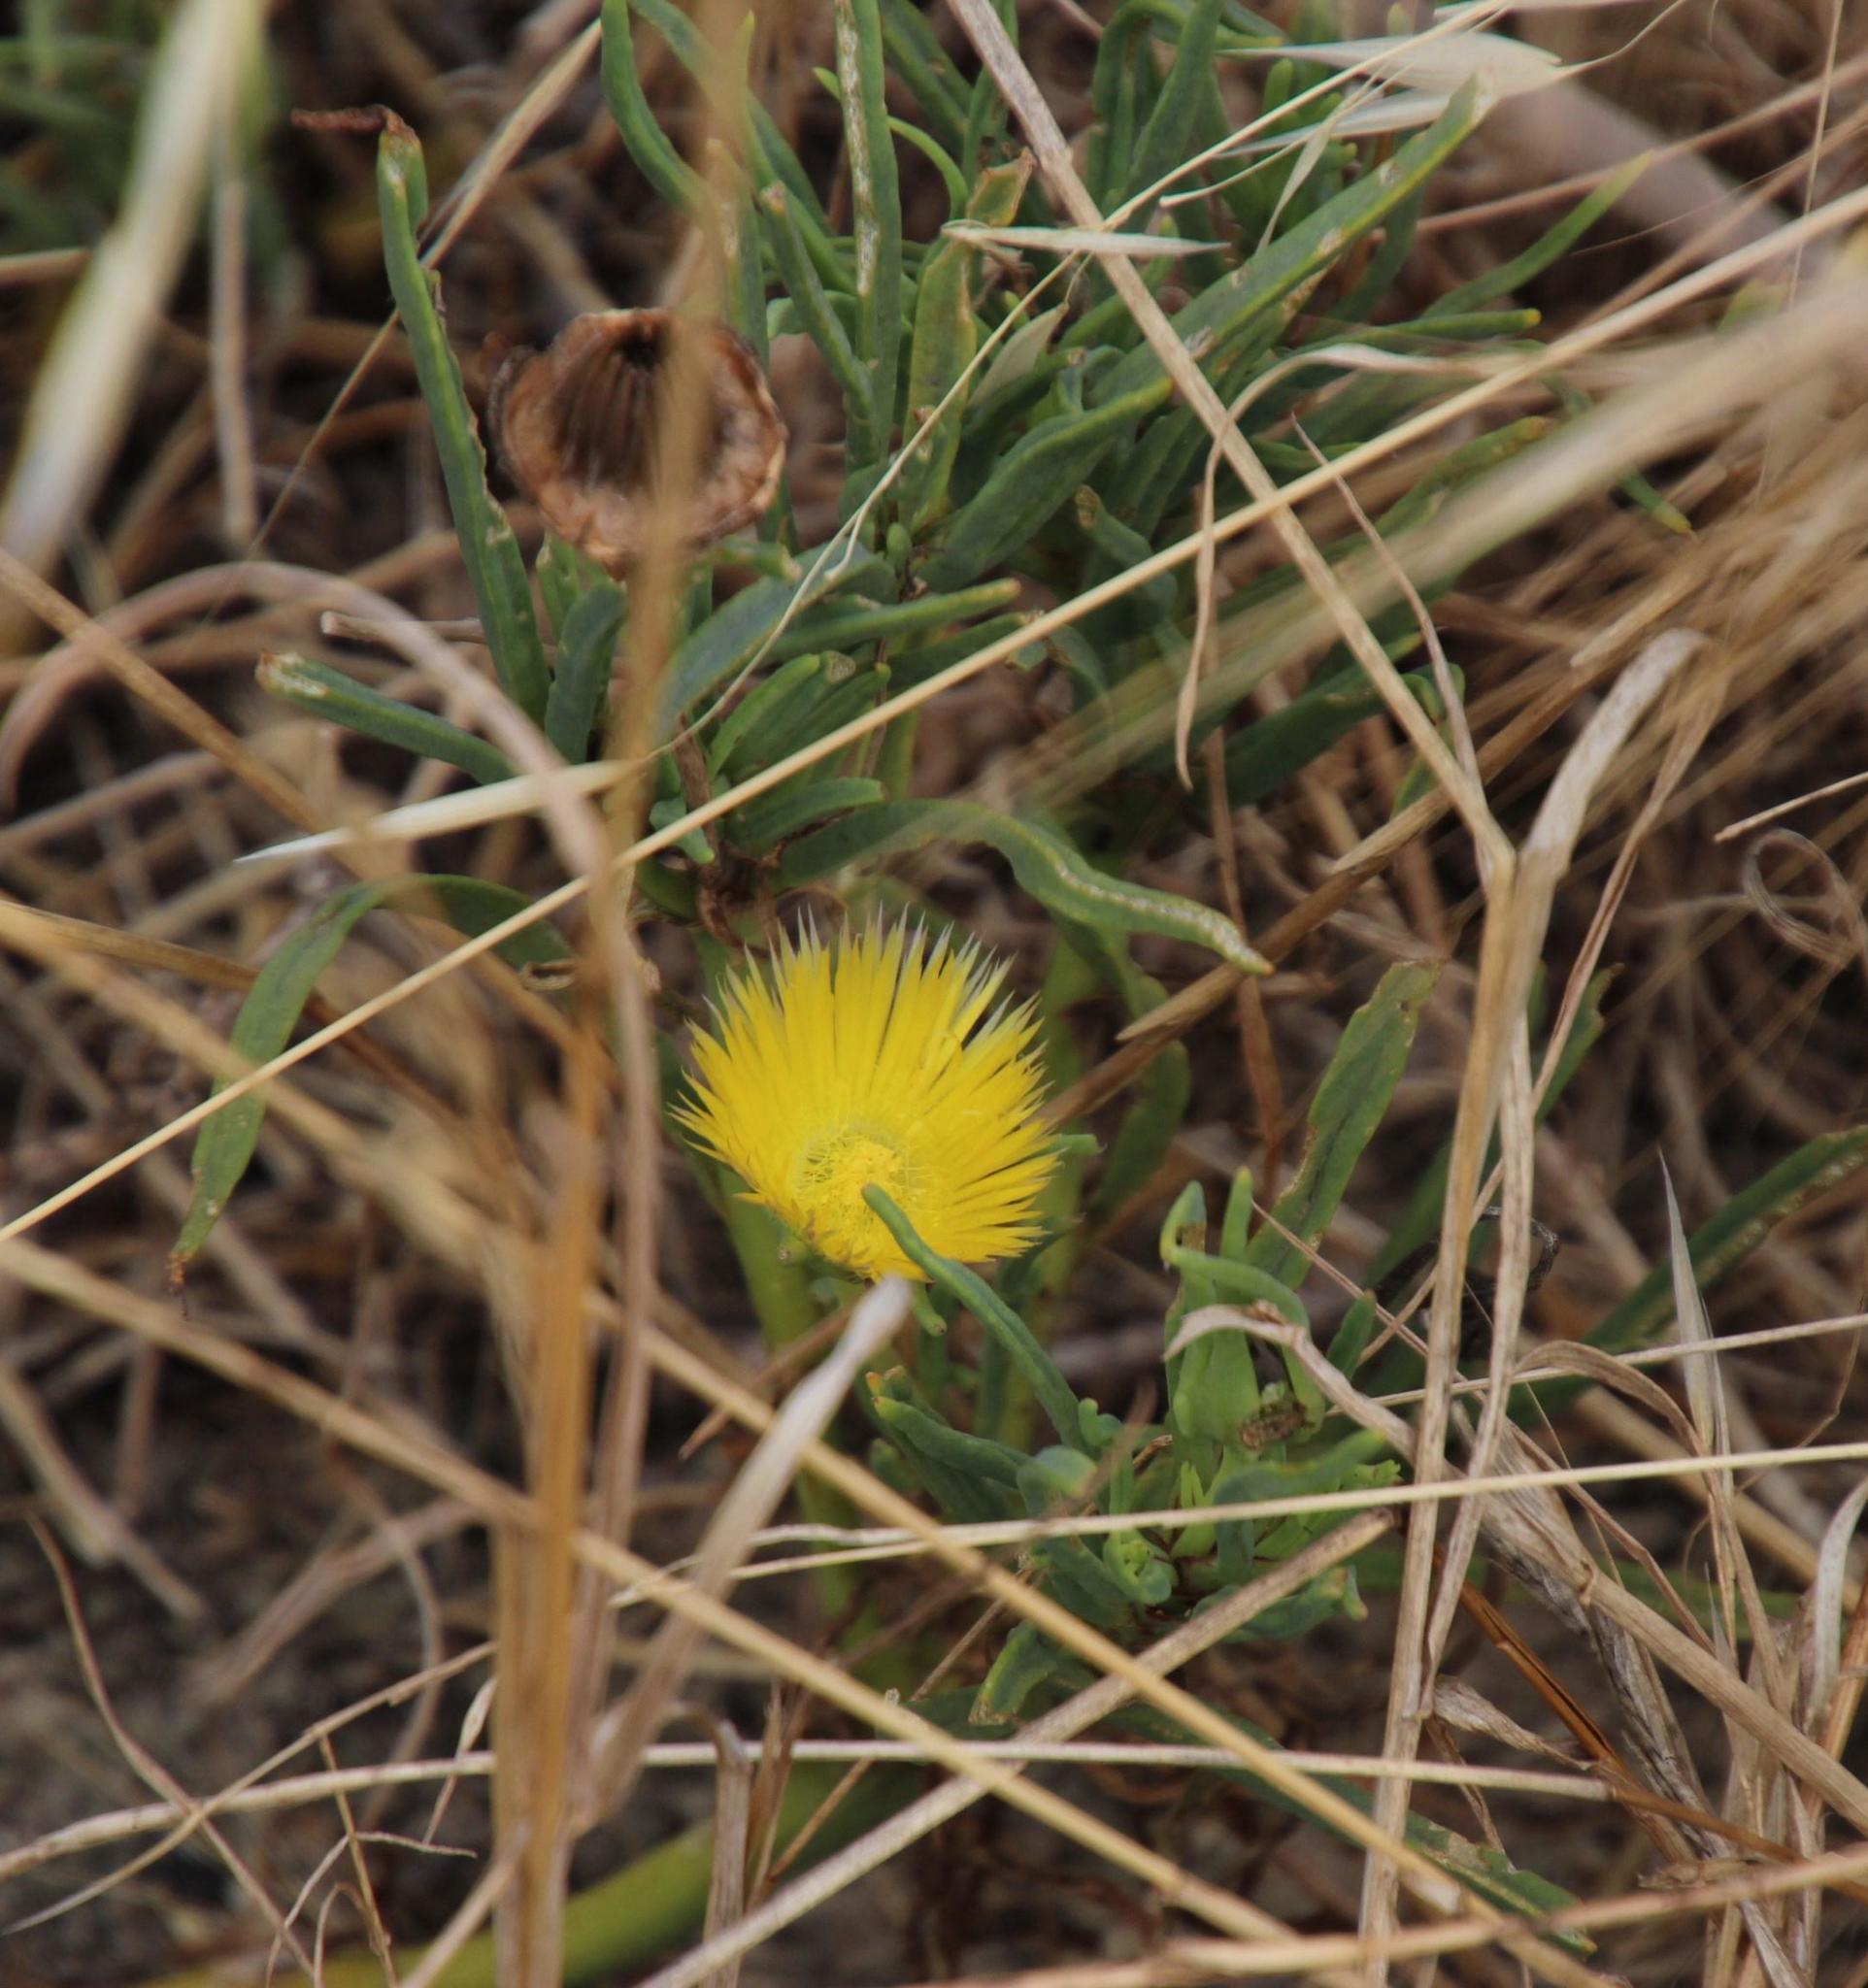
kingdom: Plantae
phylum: Tracheophyta
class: Magnoliopsida
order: Caryophyllales
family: Aizoaceae
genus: Conicosia
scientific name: Conicosia pugioniformis
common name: Narrow-leaved iceplant
